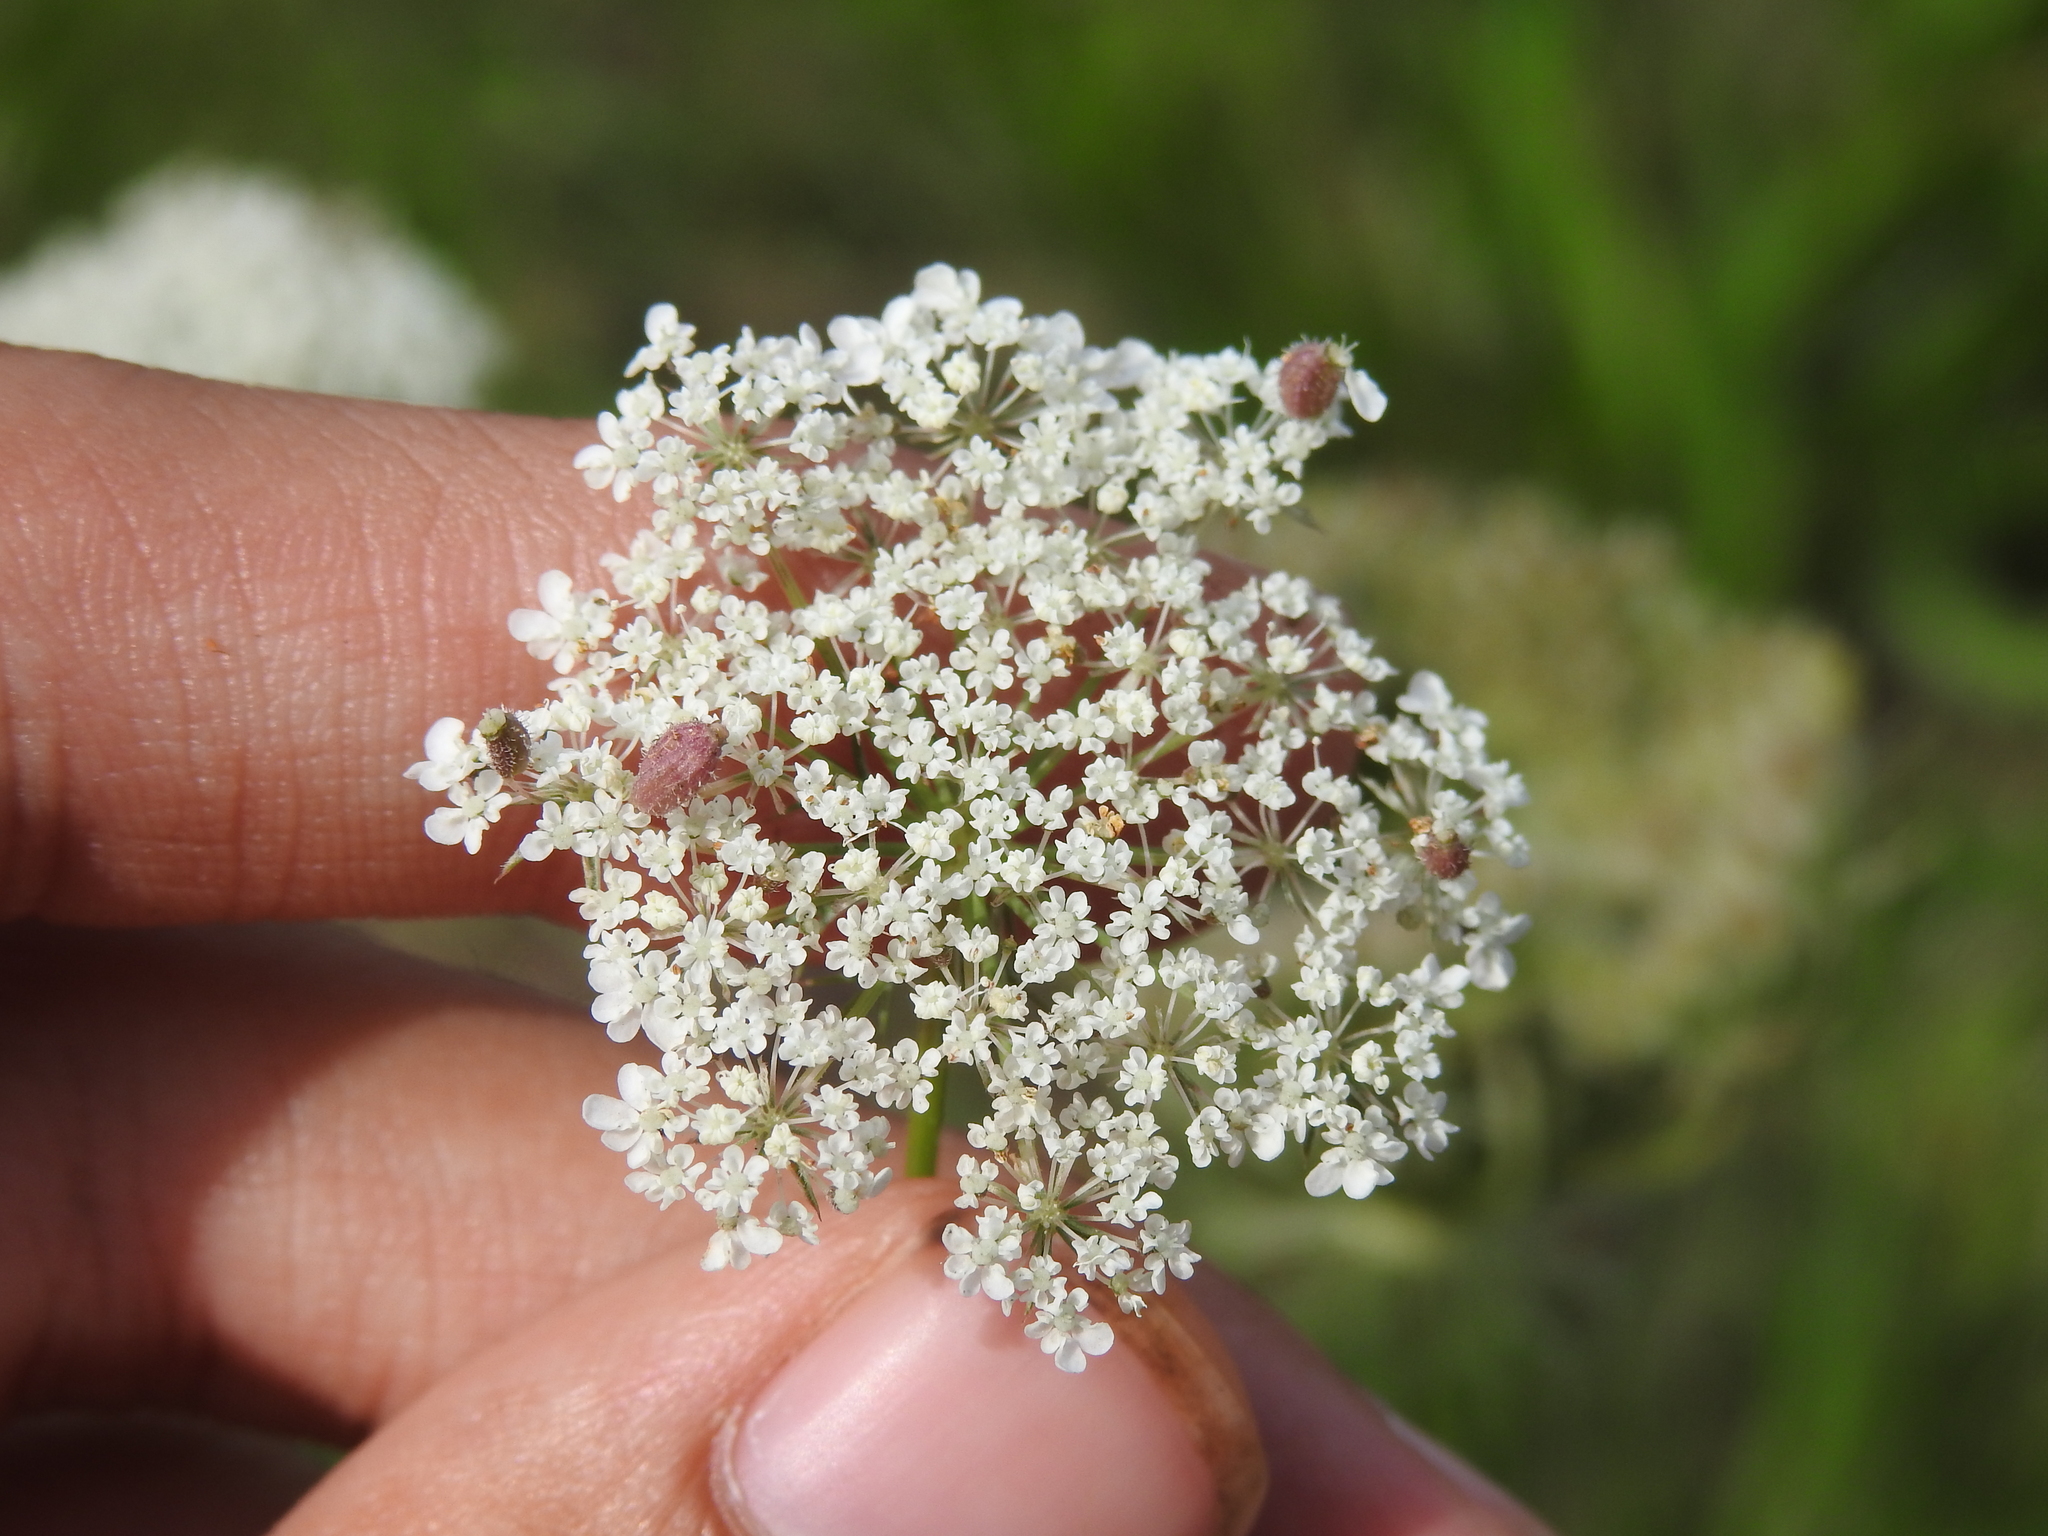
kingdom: Animalia
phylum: Arthropoda
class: Insecta
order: Diptera
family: Cecidomyiidae
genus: Kiefferia
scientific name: Kiefferia pericarpiicola
